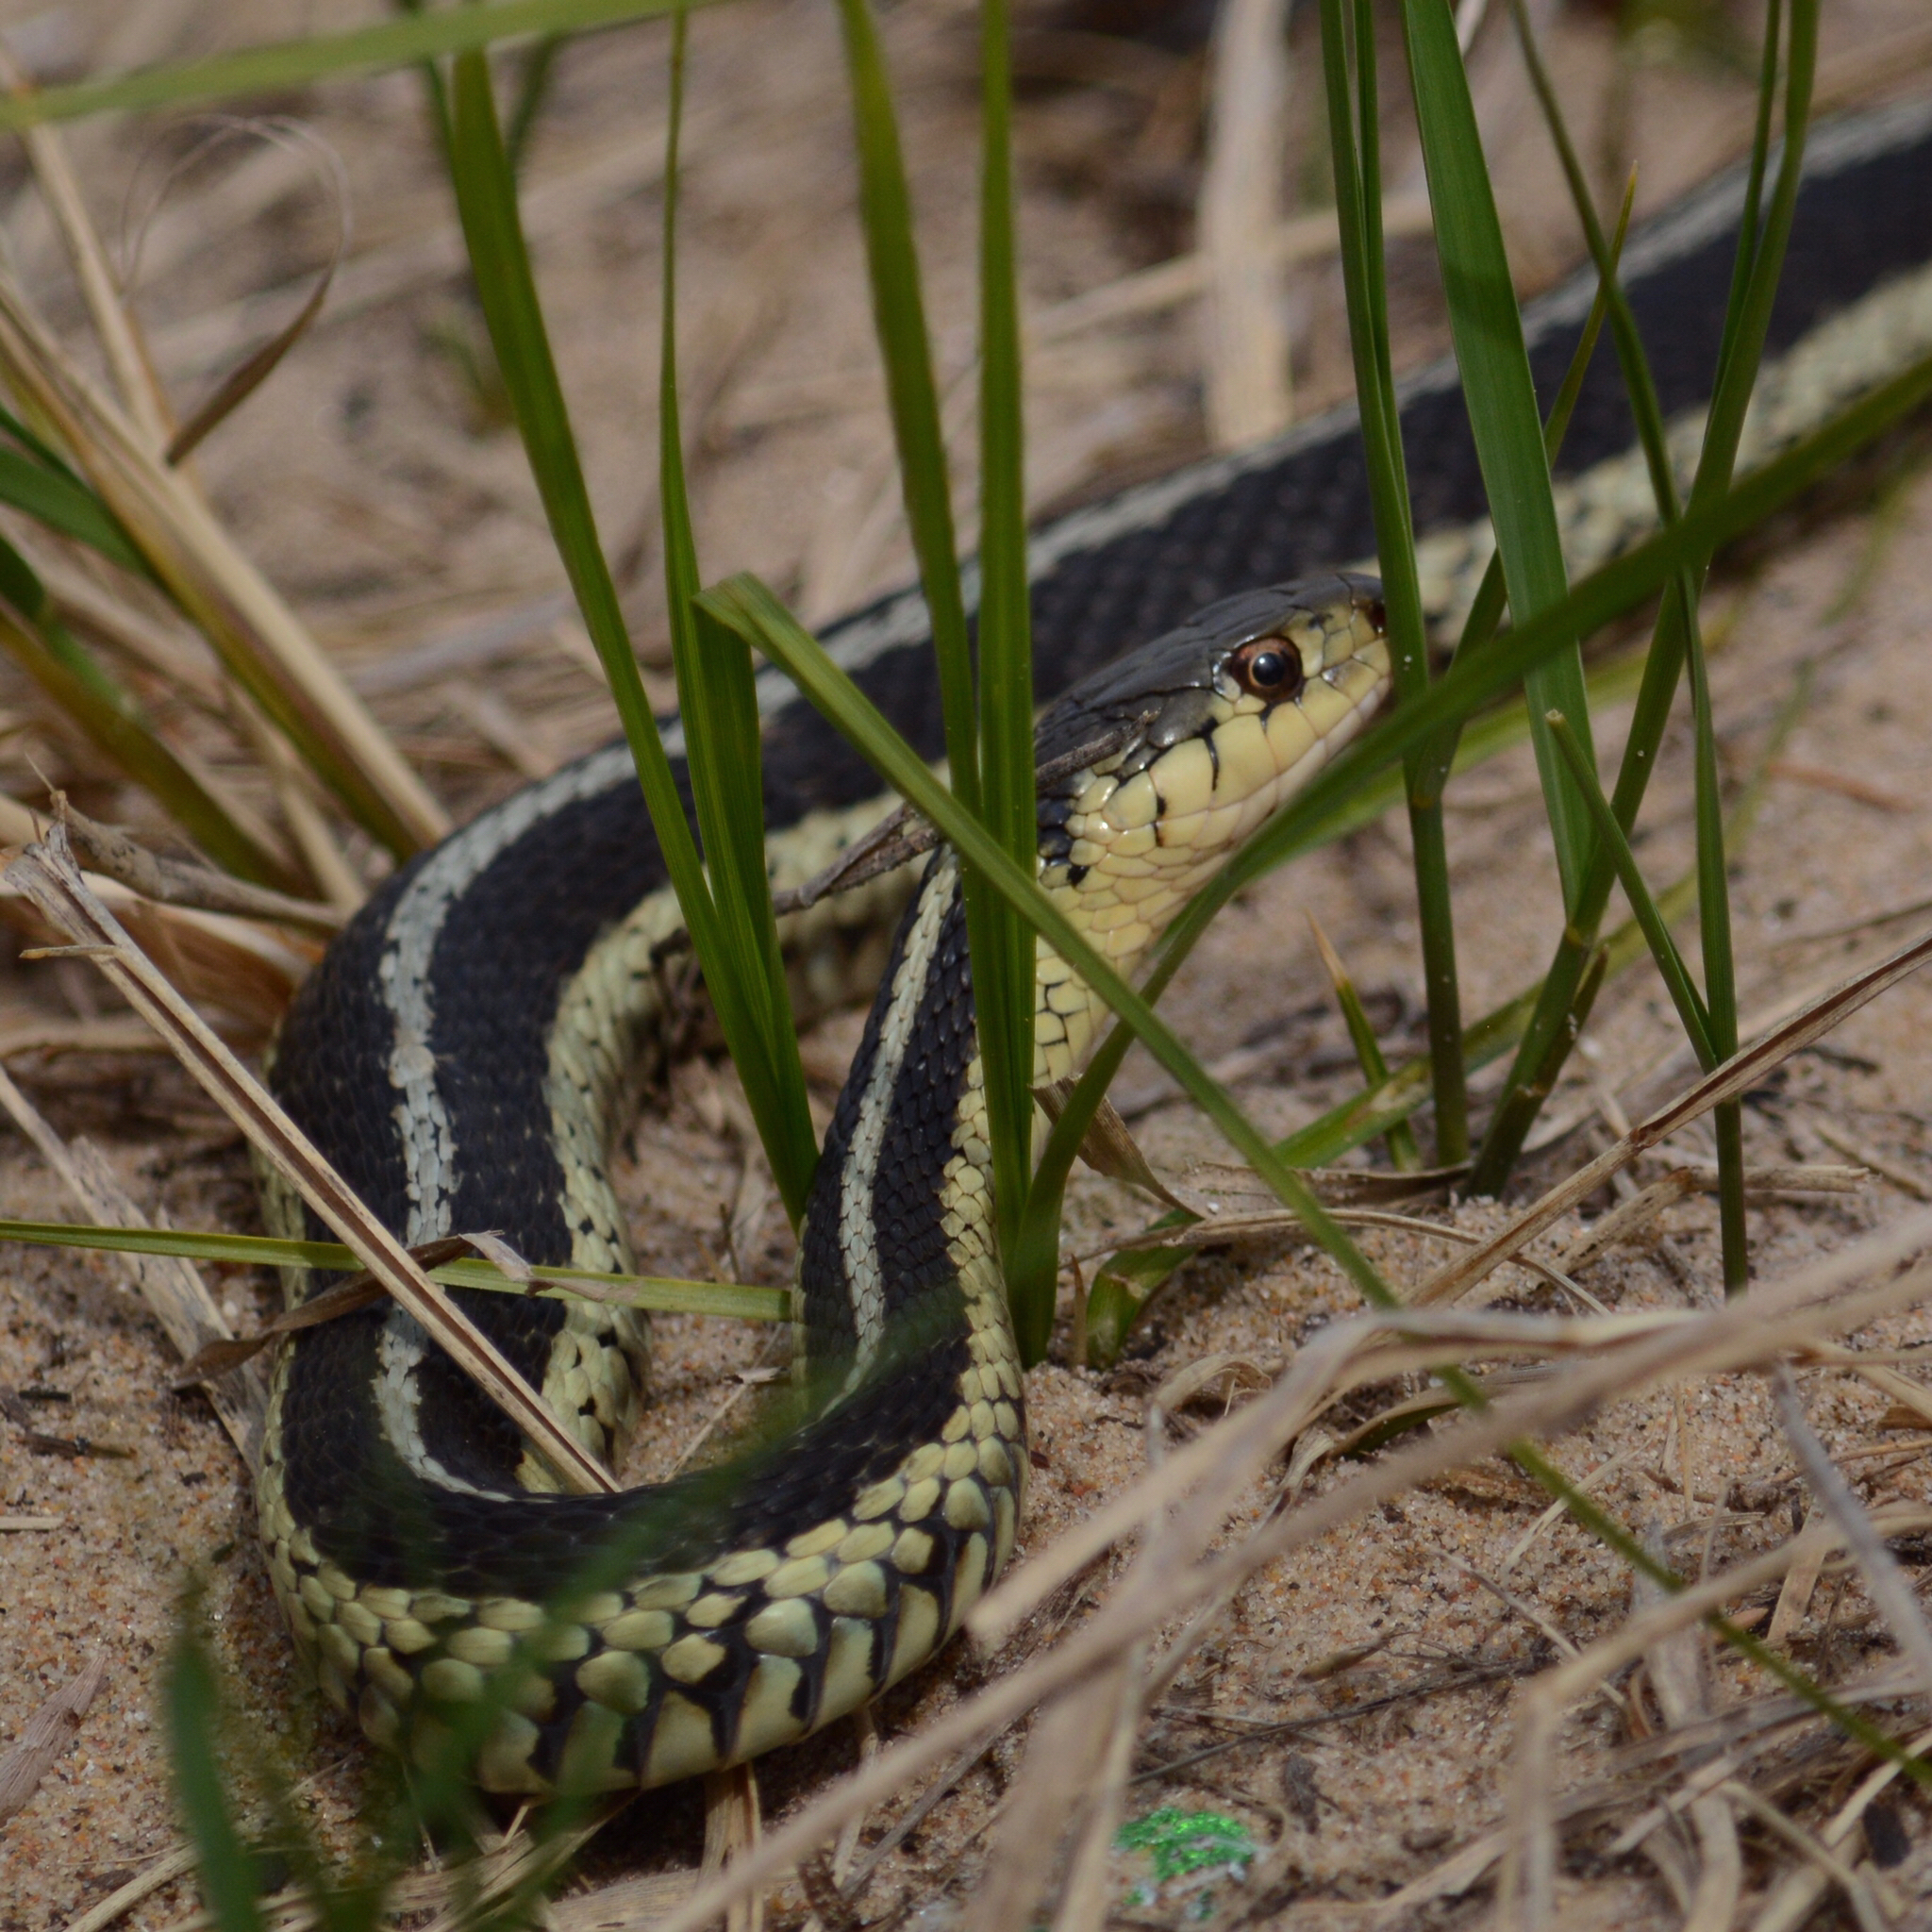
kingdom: Animalia
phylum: Chordata
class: Squamata
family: Colubridae
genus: Thamnophis
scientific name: Thamnophis sirtalis
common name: Common garter snake
